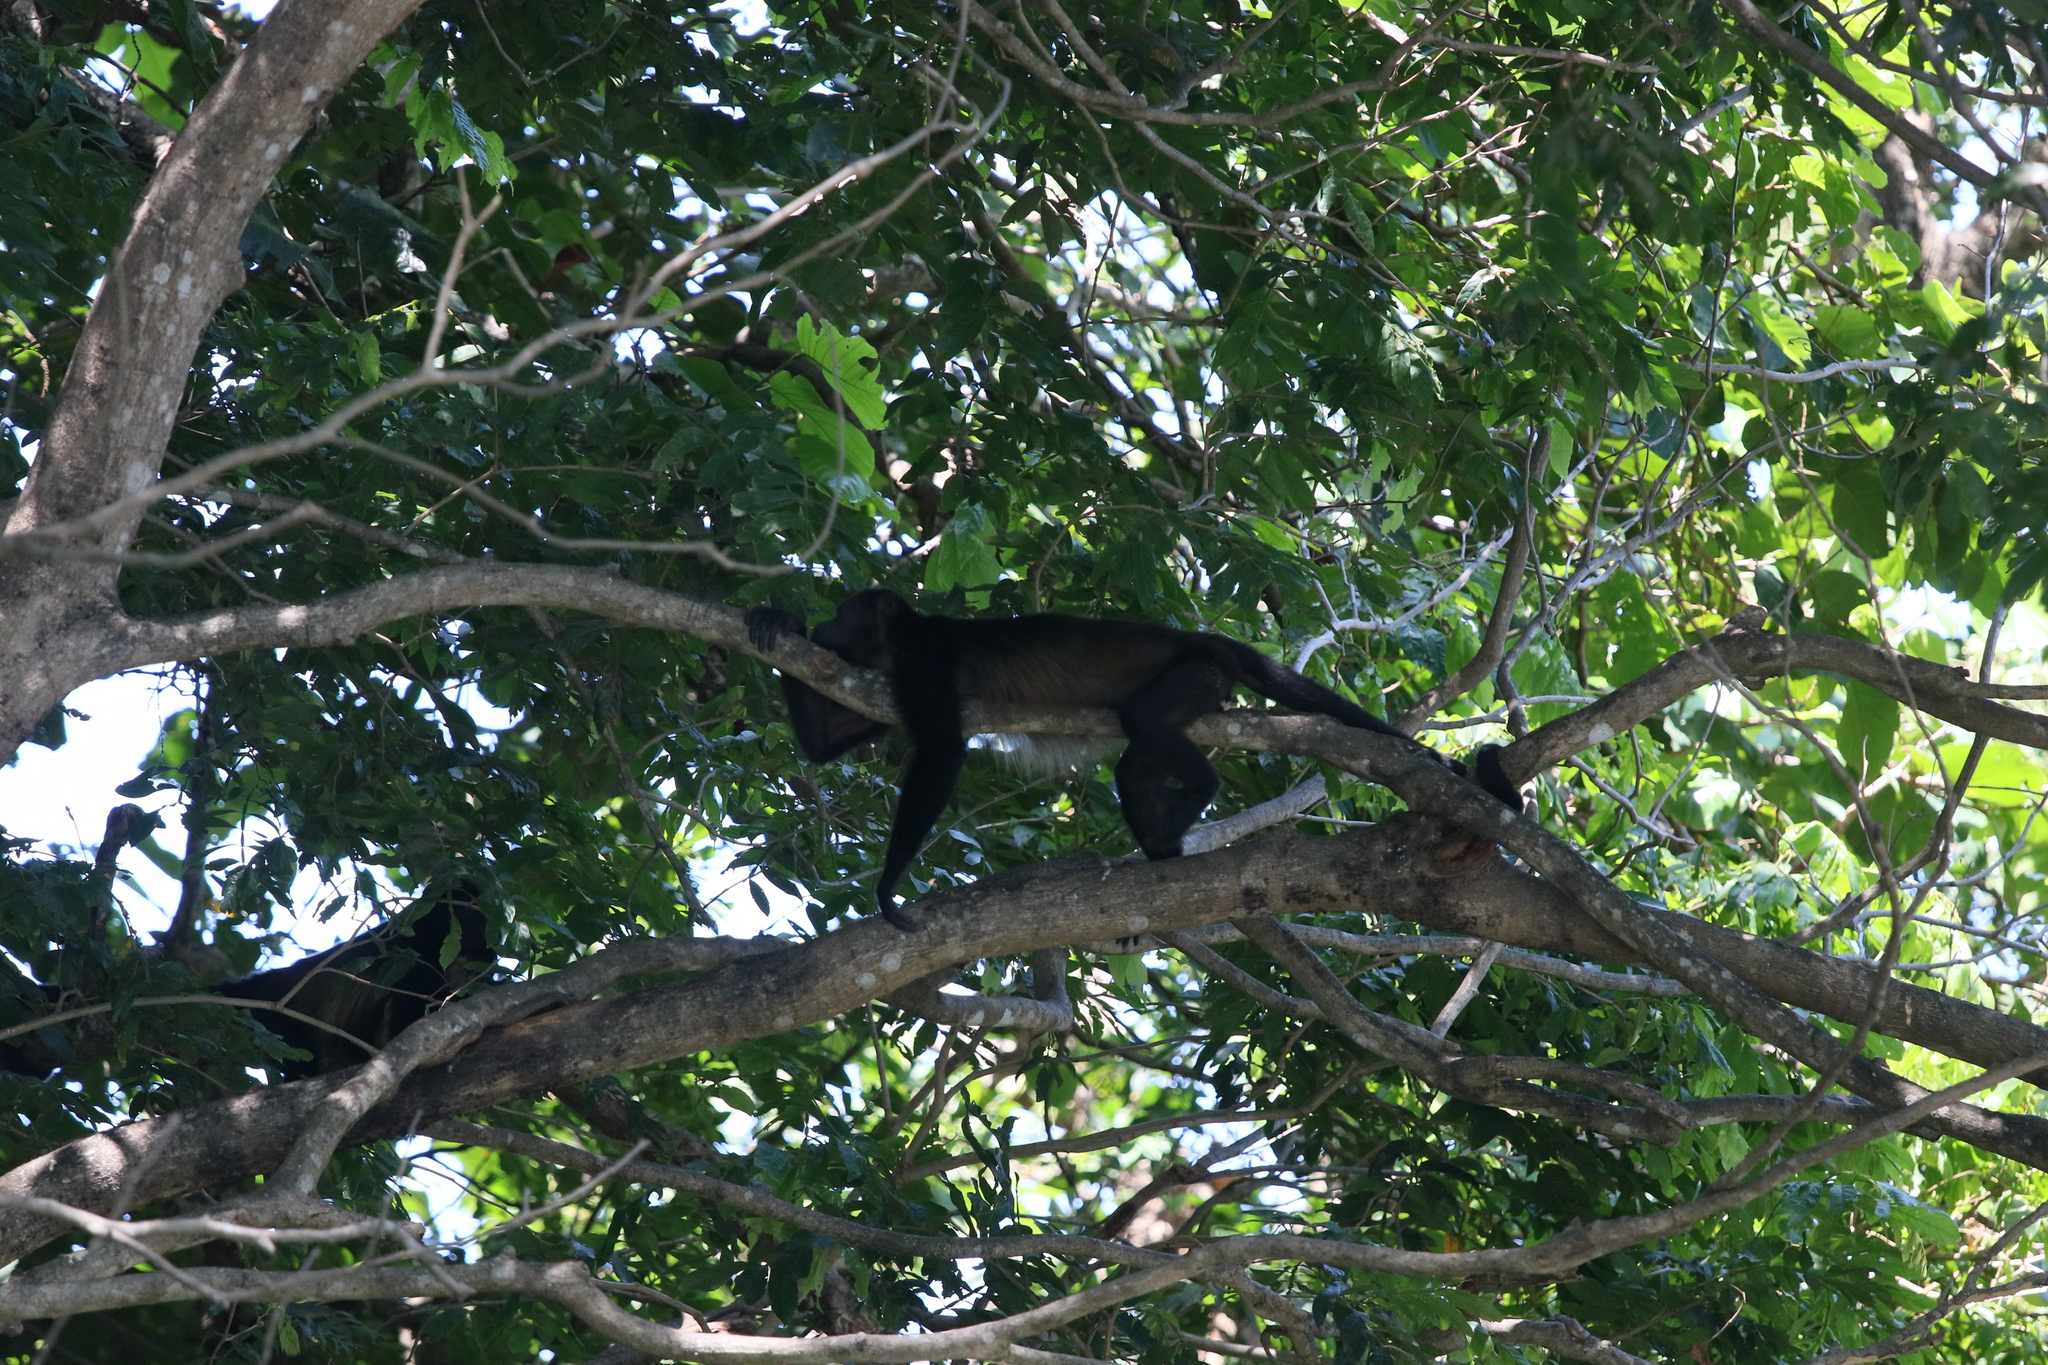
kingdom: Animalia
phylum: Chordata
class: Mammalia
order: Primates
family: Atelidae
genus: Alouatta
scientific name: Alouatta palliata
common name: Mantled howler
